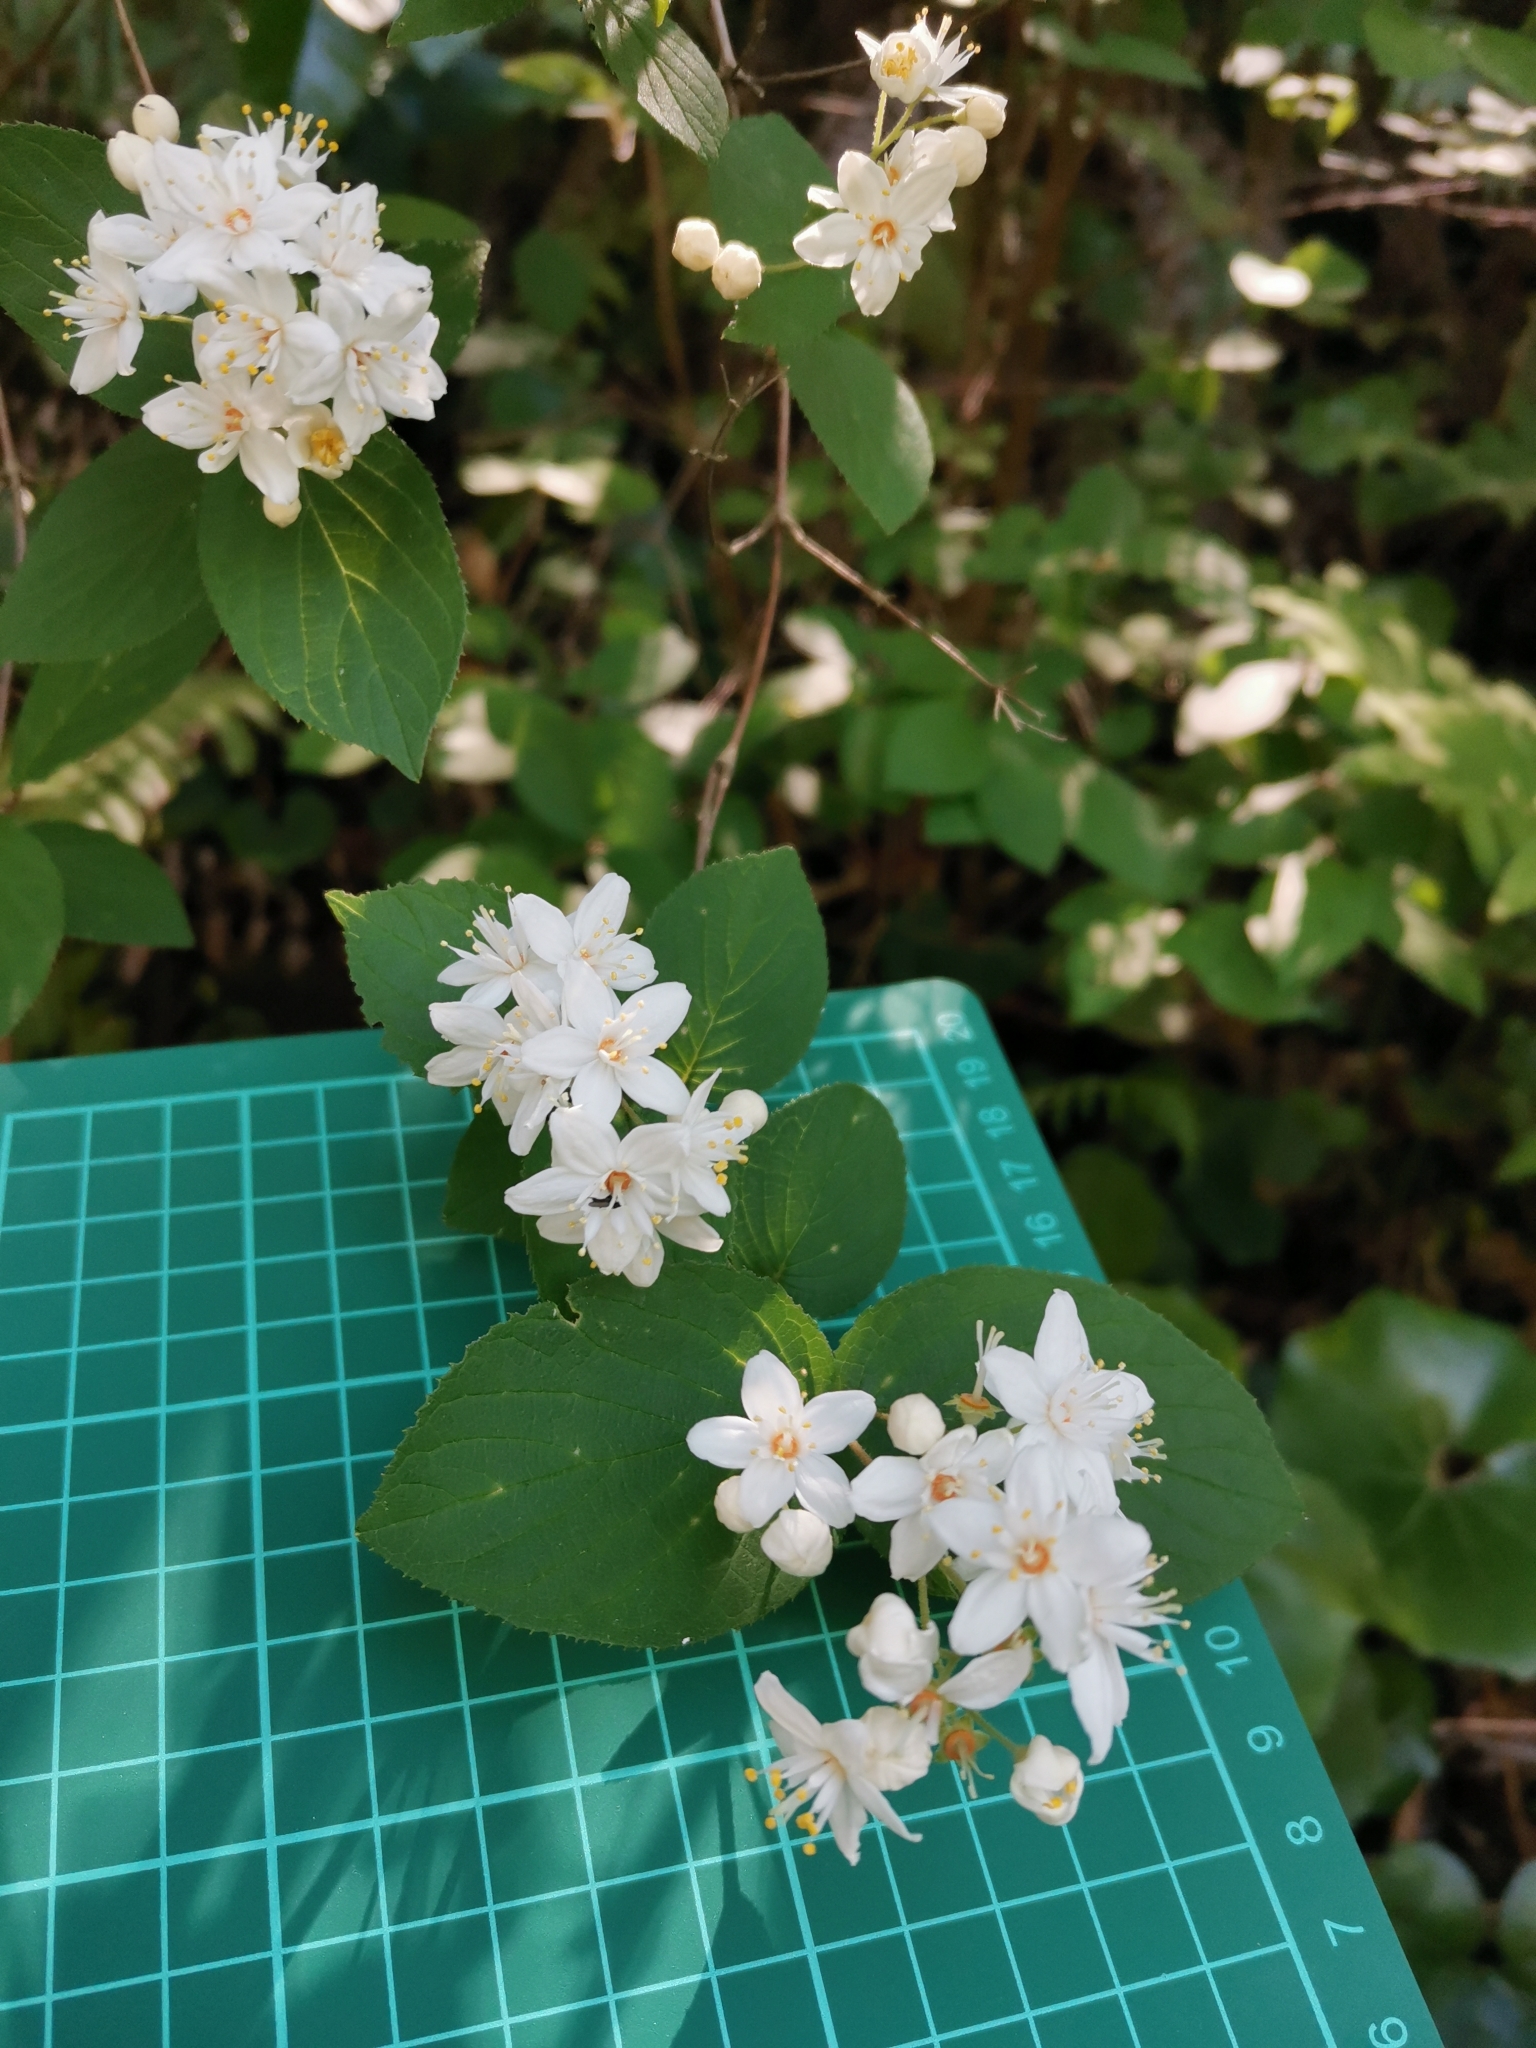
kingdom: Plantae
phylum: Tracheophyta
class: Magnoliopsida
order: Cornales
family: Hydrangeaceae
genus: Deutzia
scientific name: Deutzia scabra
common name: Deutzia
